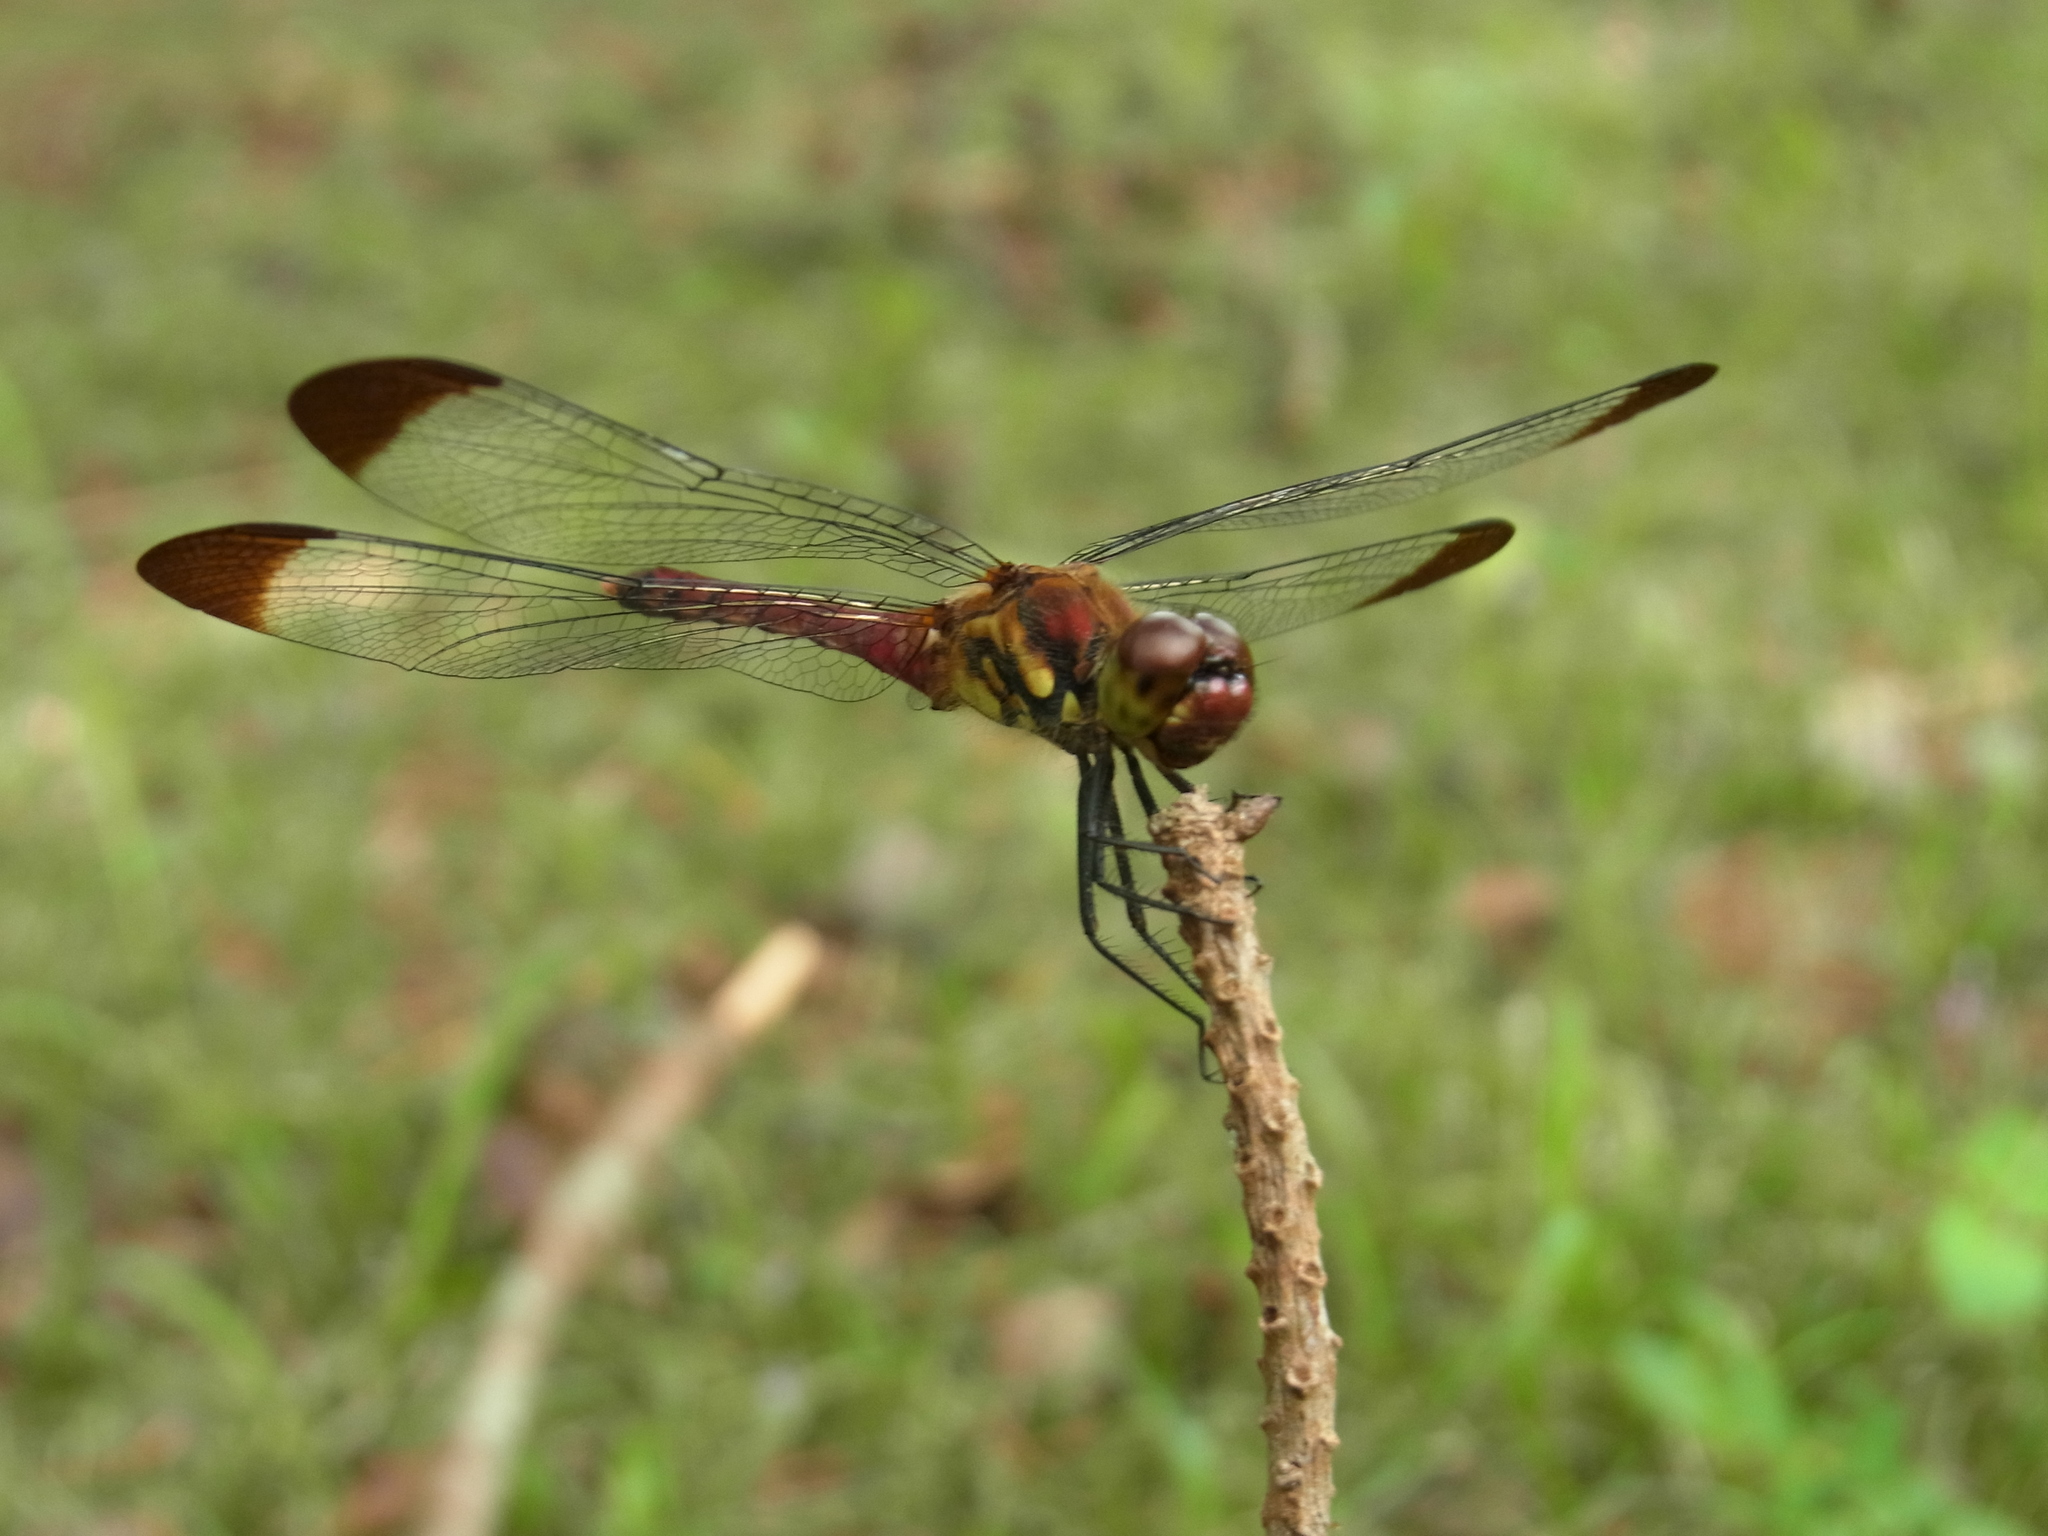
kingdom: Animalia
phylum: Arthropoda
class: Insecta
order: Odonata
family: Libellulidae
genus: Sympetrum
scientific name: Sympetrum baccha
